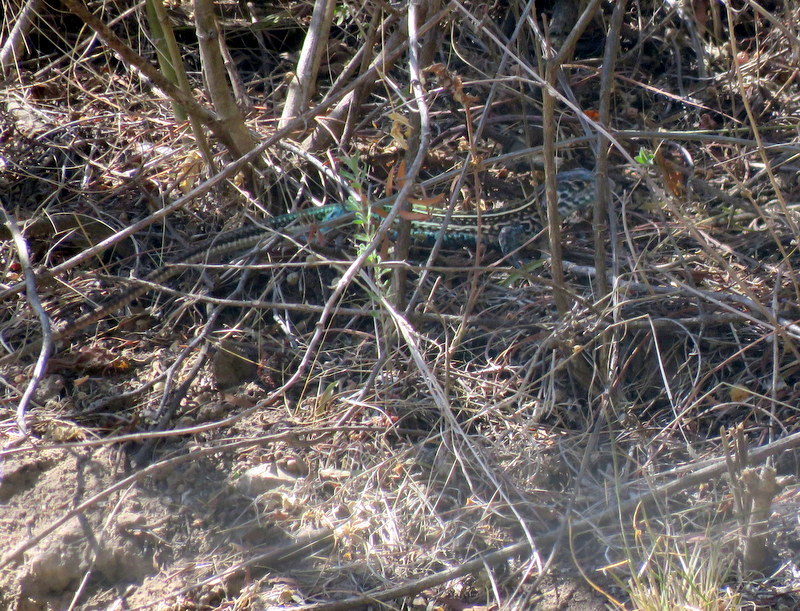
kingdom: Animalia
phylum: Chordata
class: Squamata
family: Teiidae
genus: Teius
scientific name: Teius teyou
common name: Four-toed tegu
